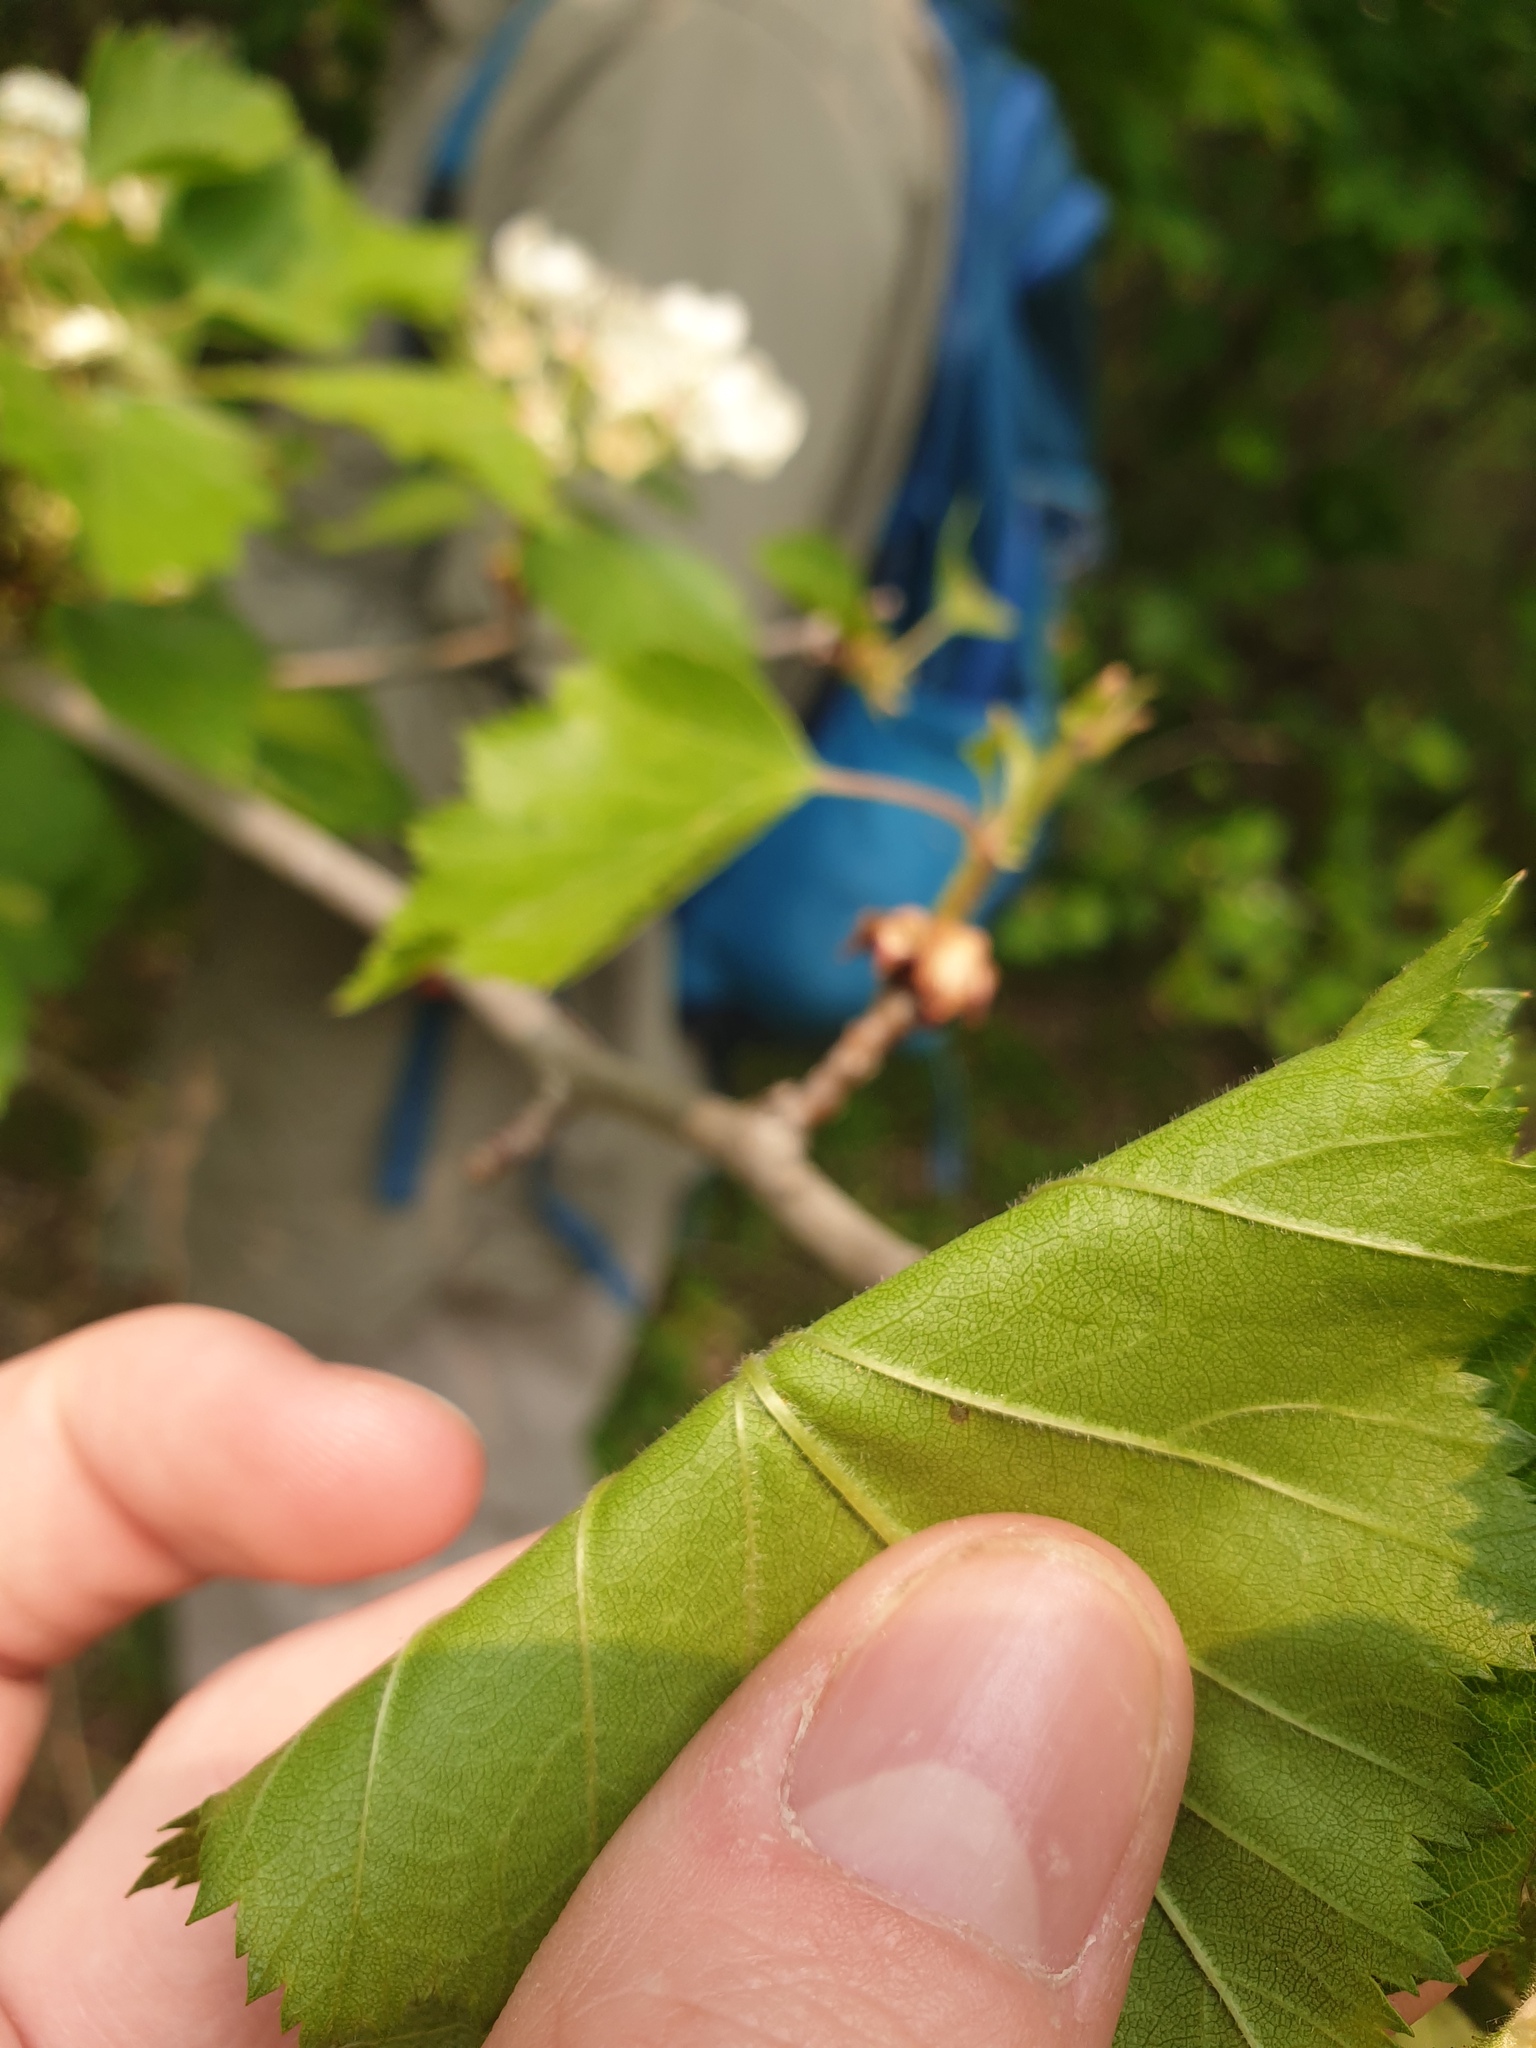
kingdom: Plantae
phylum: Tracheophyta
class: Magnoliopsida
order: Rosales
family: Rosaceae
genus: Crataegus
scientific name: Crataegus pennsylvanica
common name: Pennsylvania hawthorn
